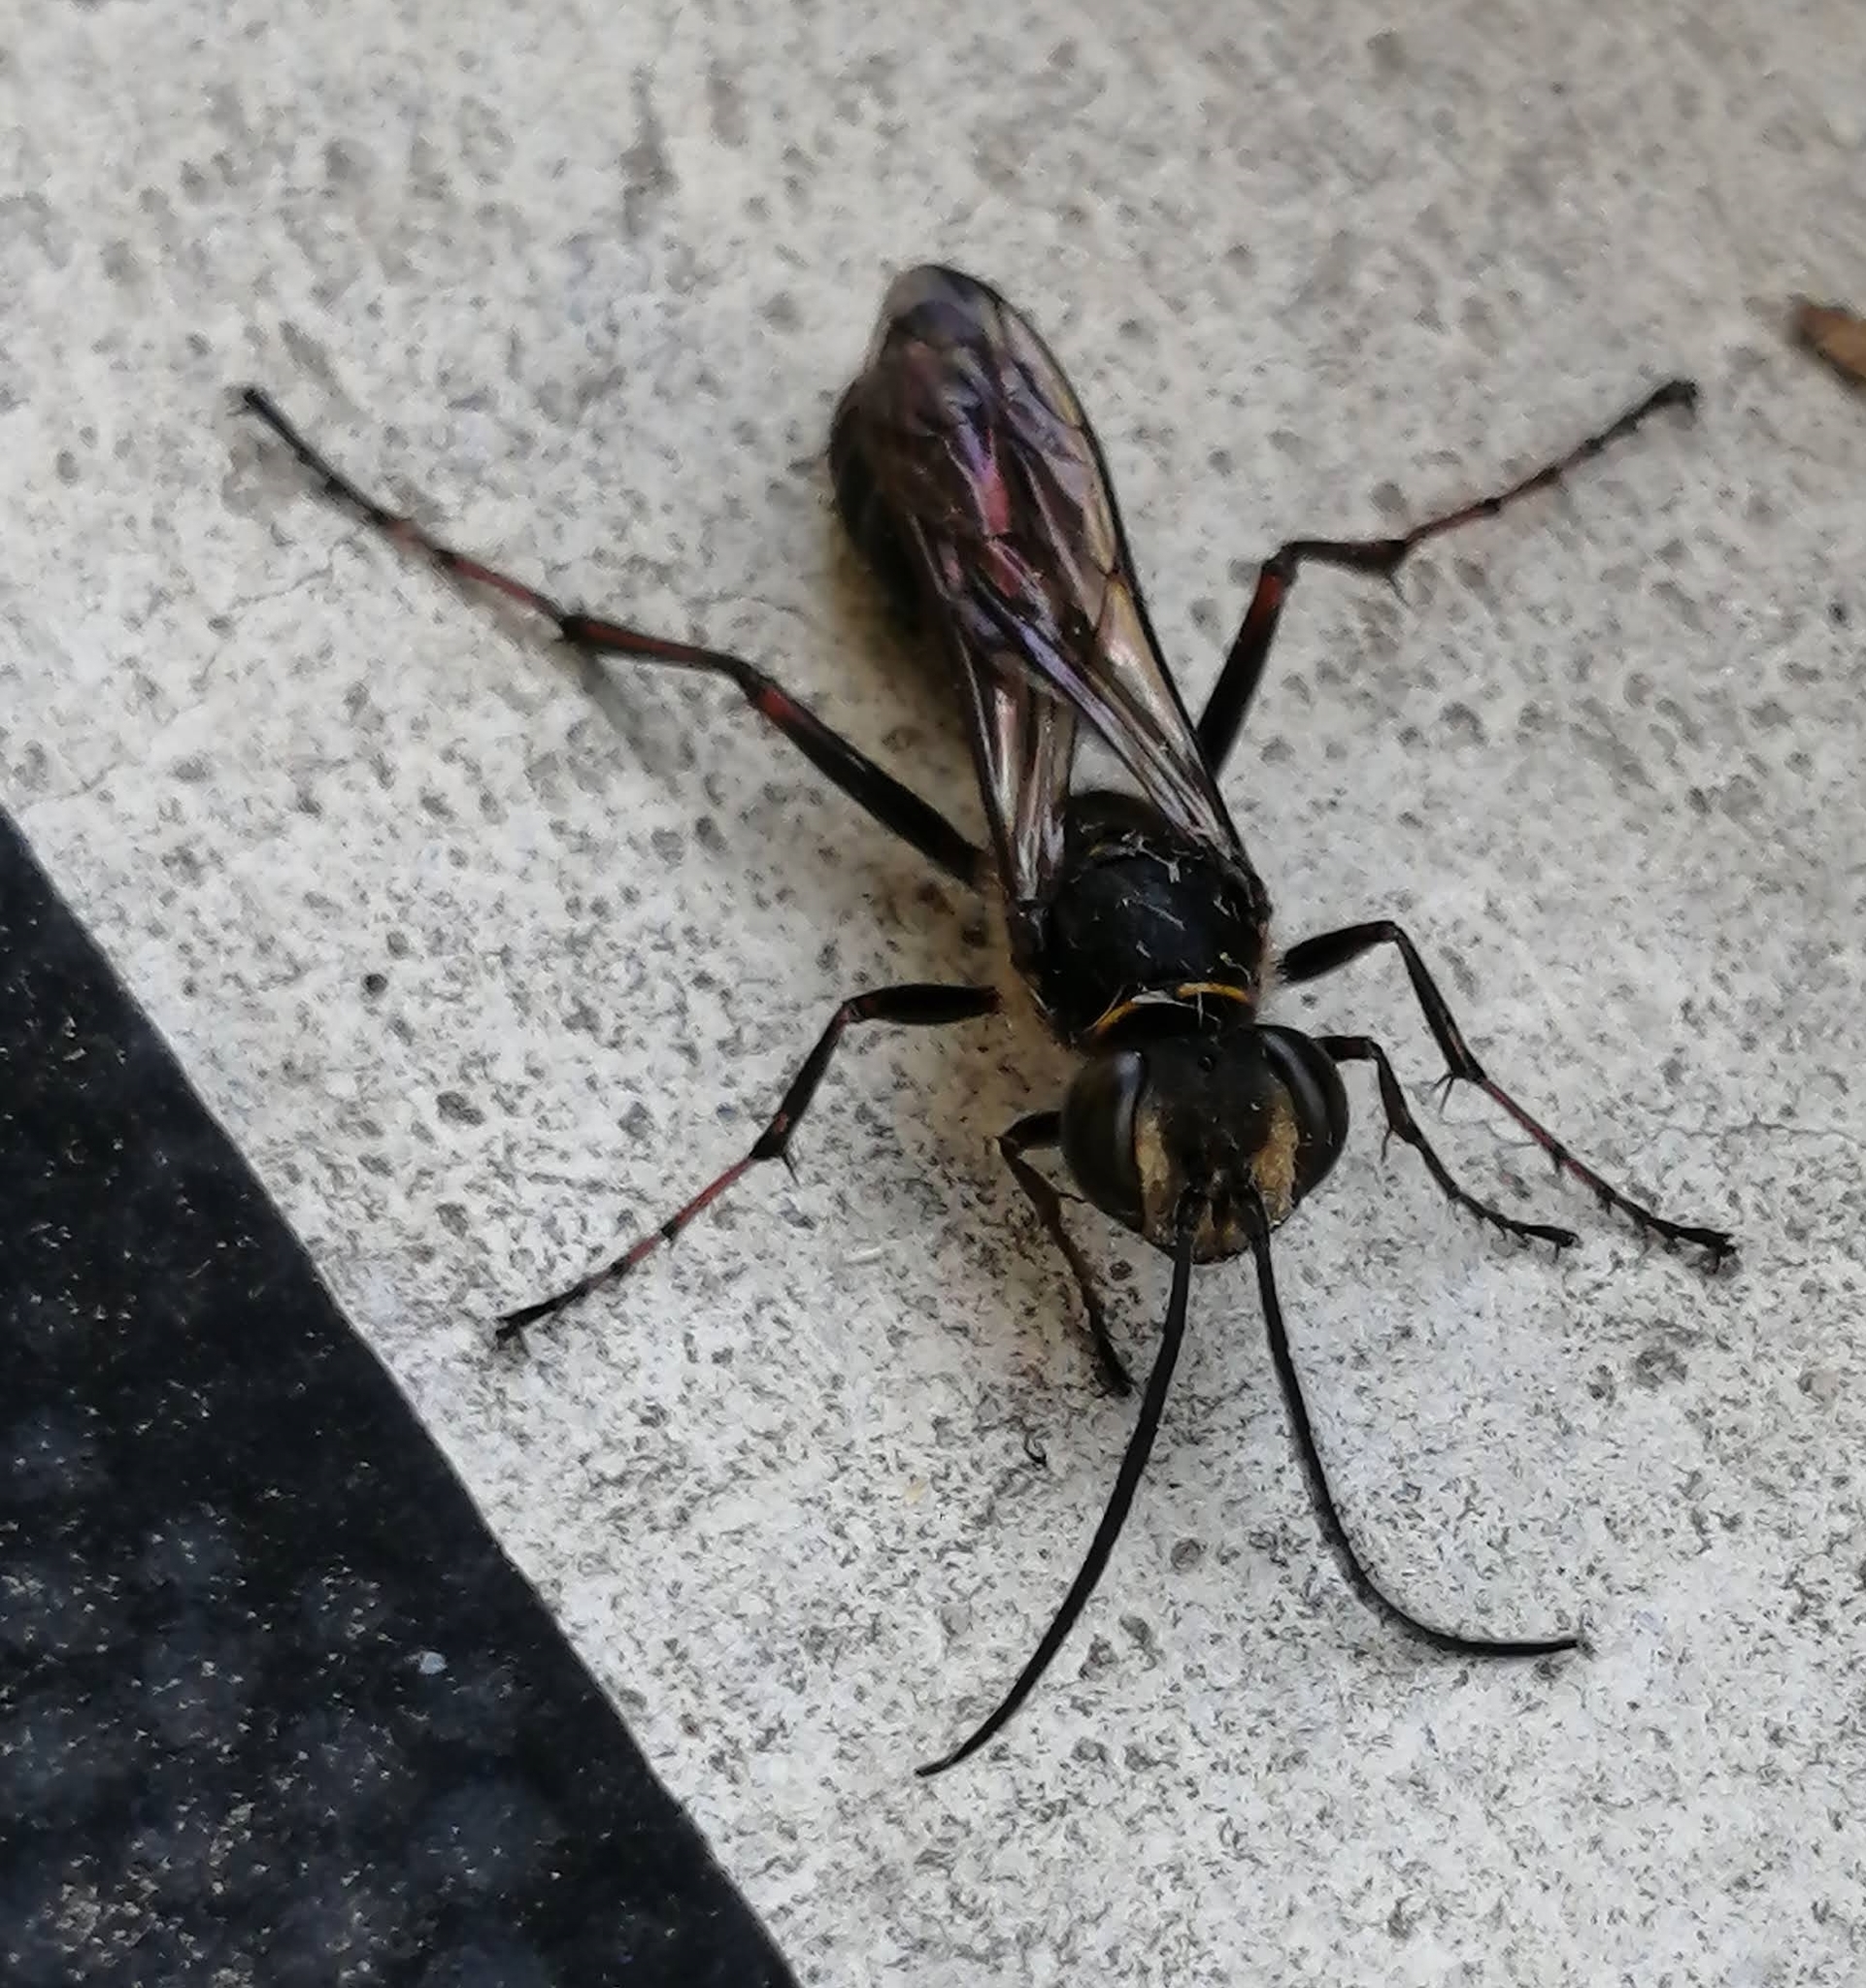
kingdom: Animalia
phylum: Arthropoda
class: Insecta
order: Hymenoptera
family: Sphecidae
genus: Sceliphron
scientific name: Sceliphron curvatum
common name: Pèlopèe
